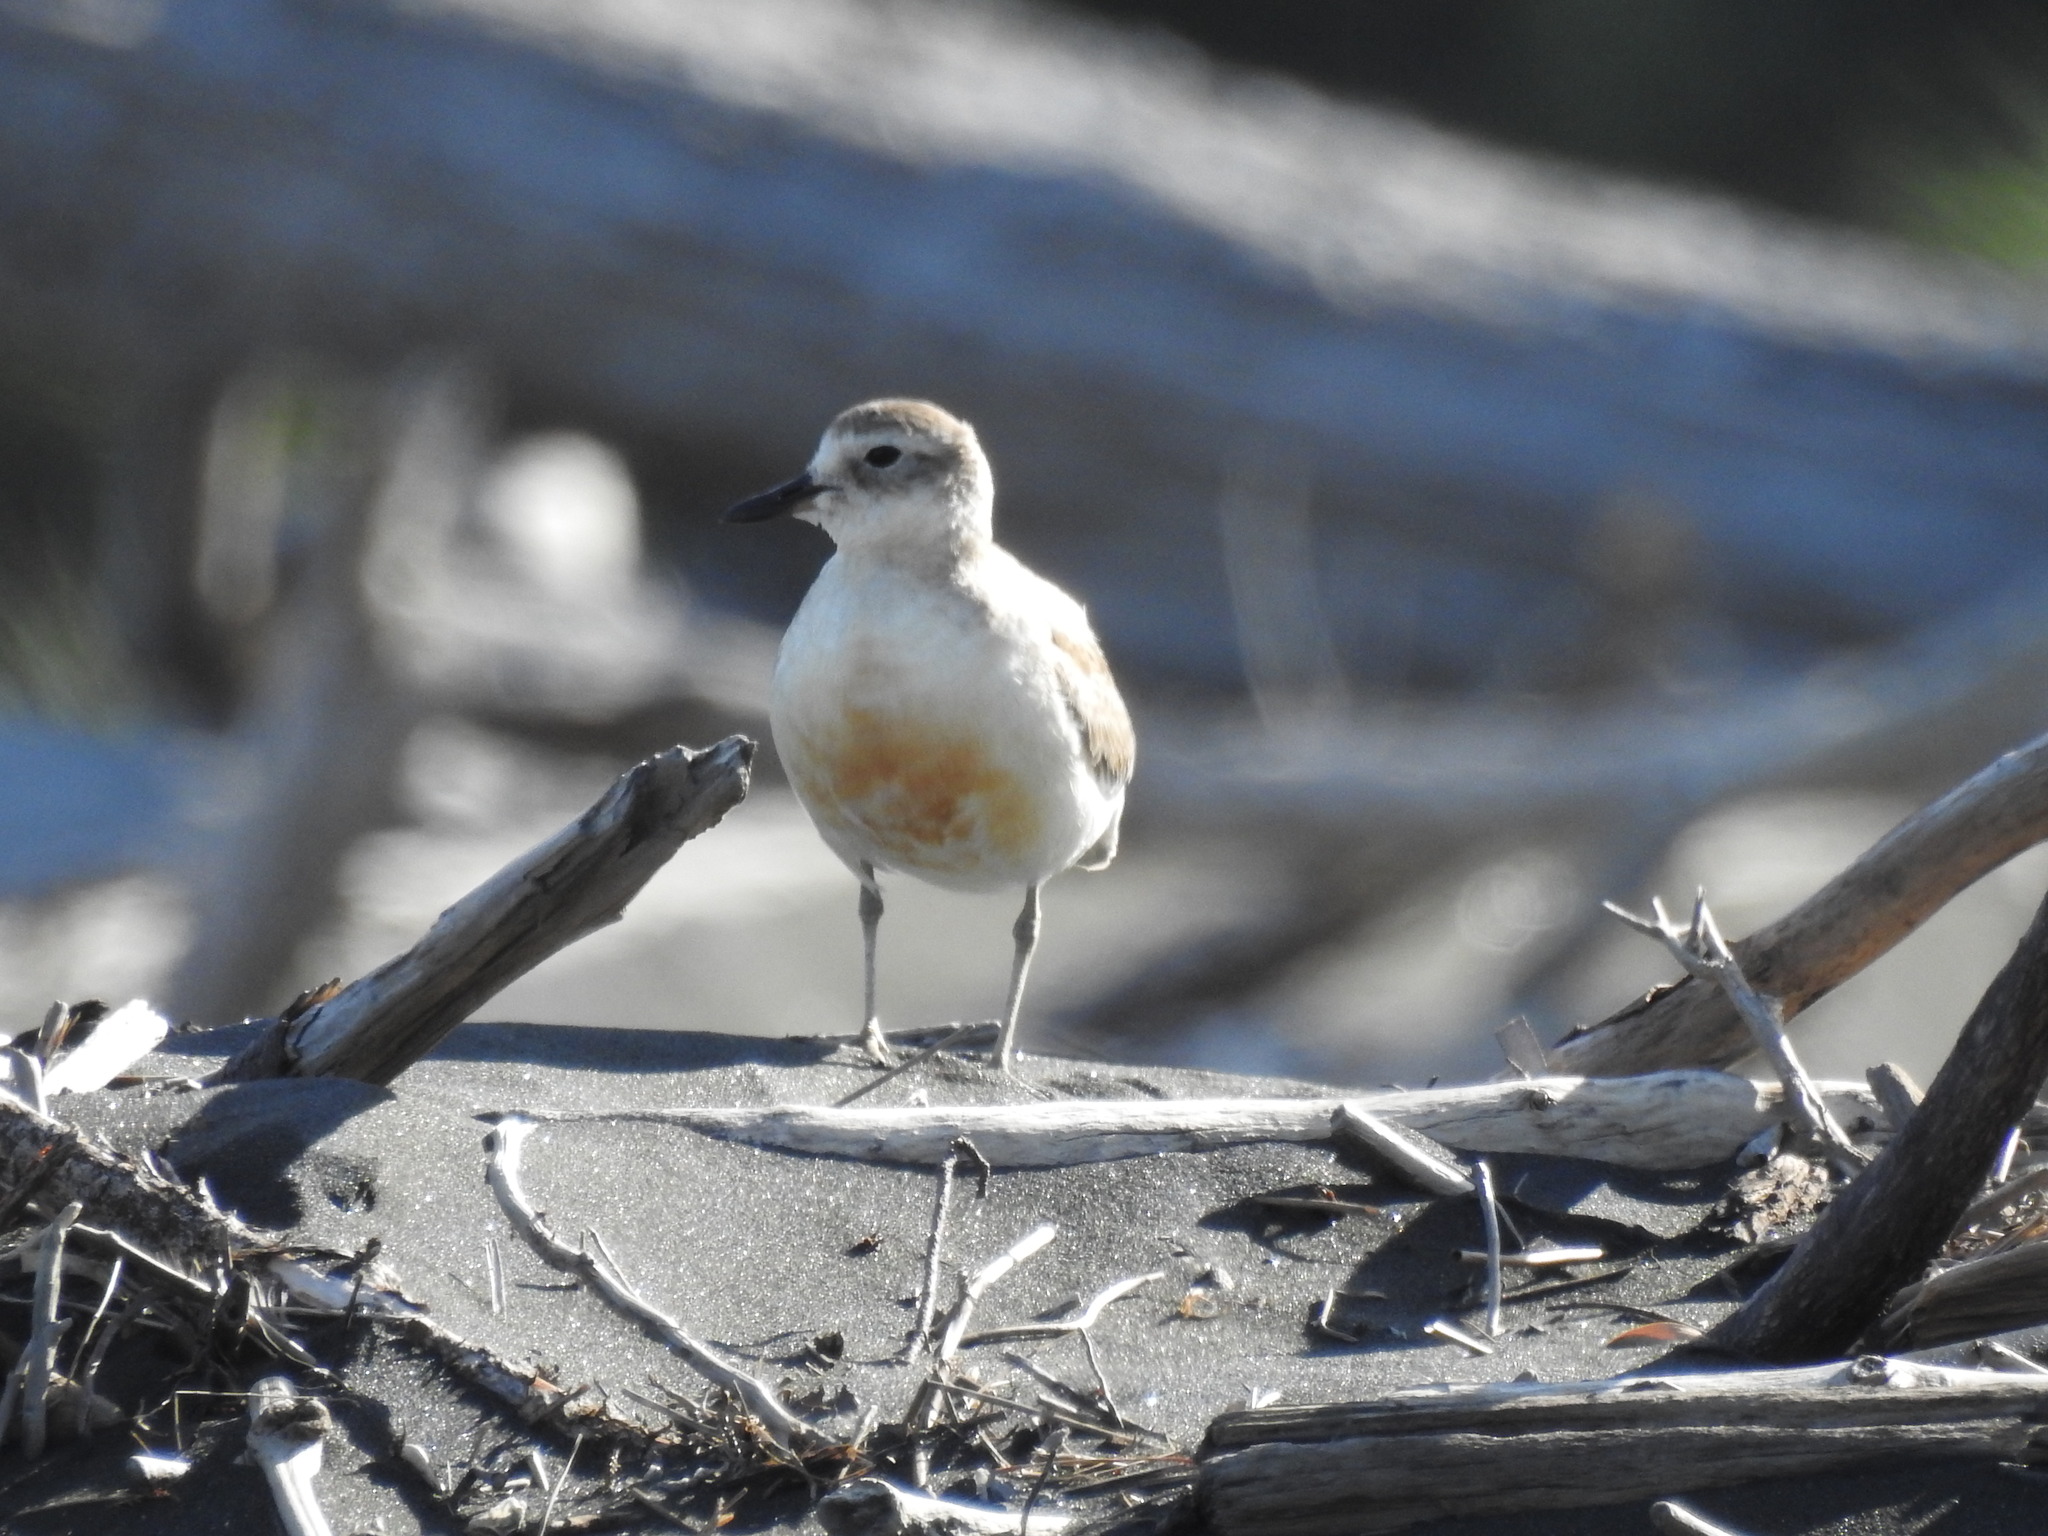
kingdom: Animalia
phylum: Chordata
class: Aves
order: Charadriiformes
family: Charadriidae
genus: Anarhynchus
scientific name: Anarhynchus
